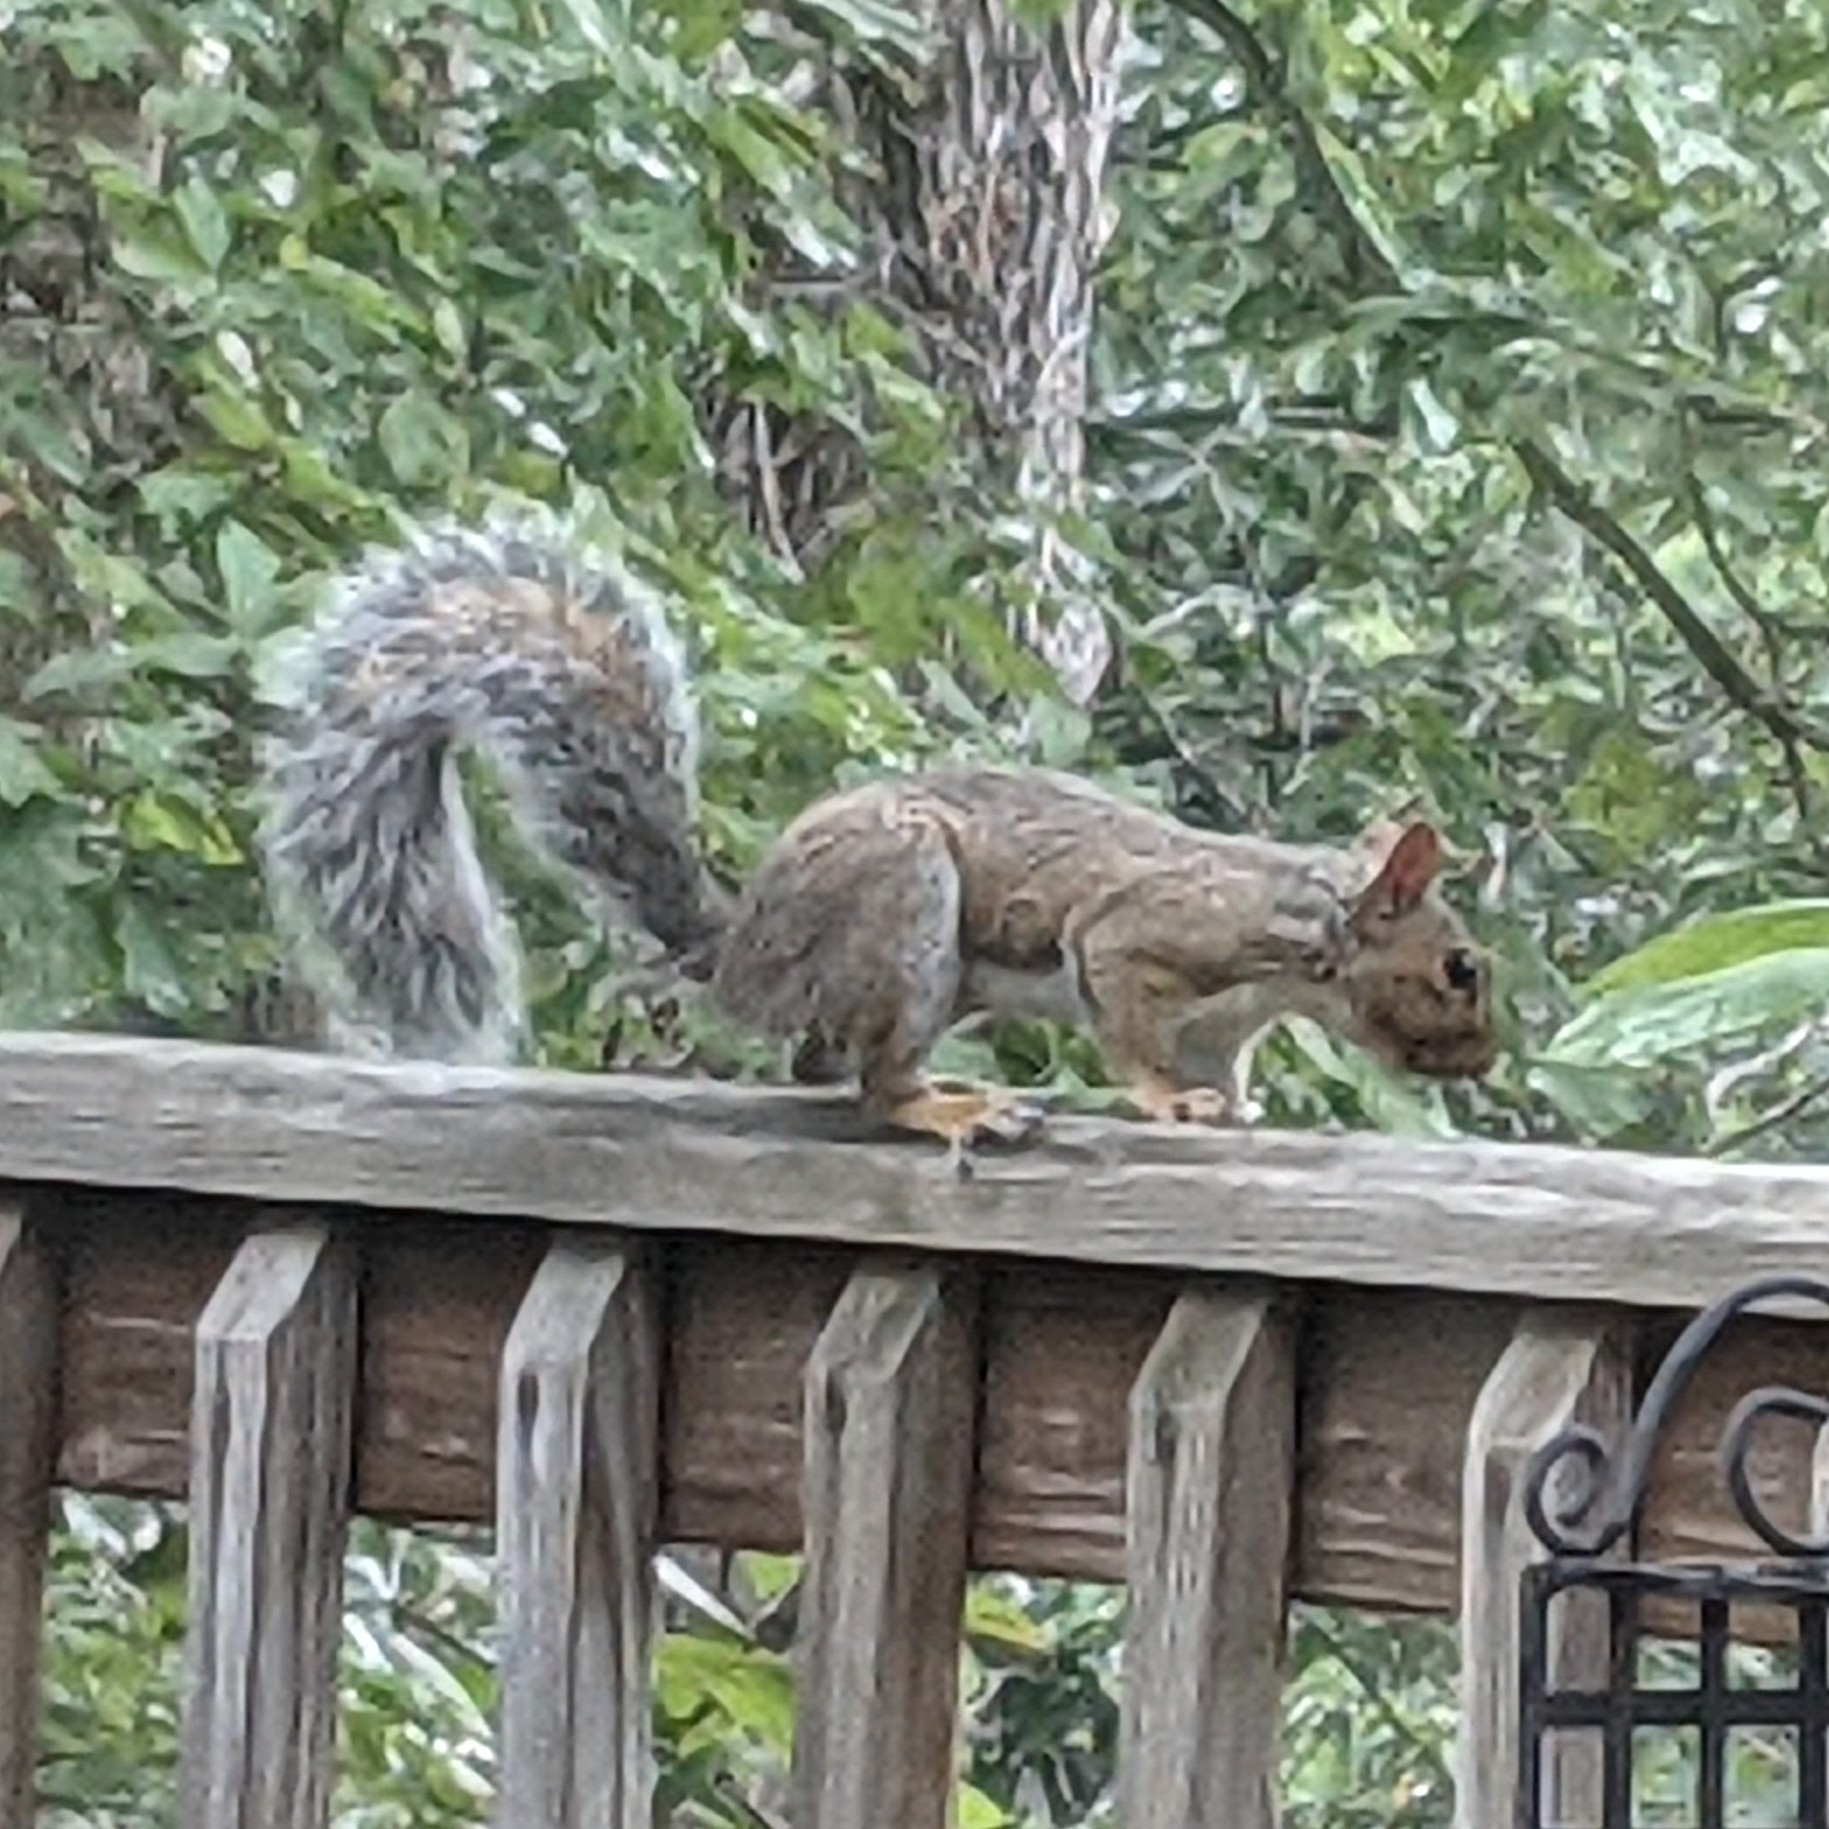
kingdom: Animalia
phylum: Chordata
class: Mammalia
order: Rodentia
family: Sciuridae
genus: Sciurus
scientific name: Sciurus carolinensis
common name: Eastern gray squirrel
